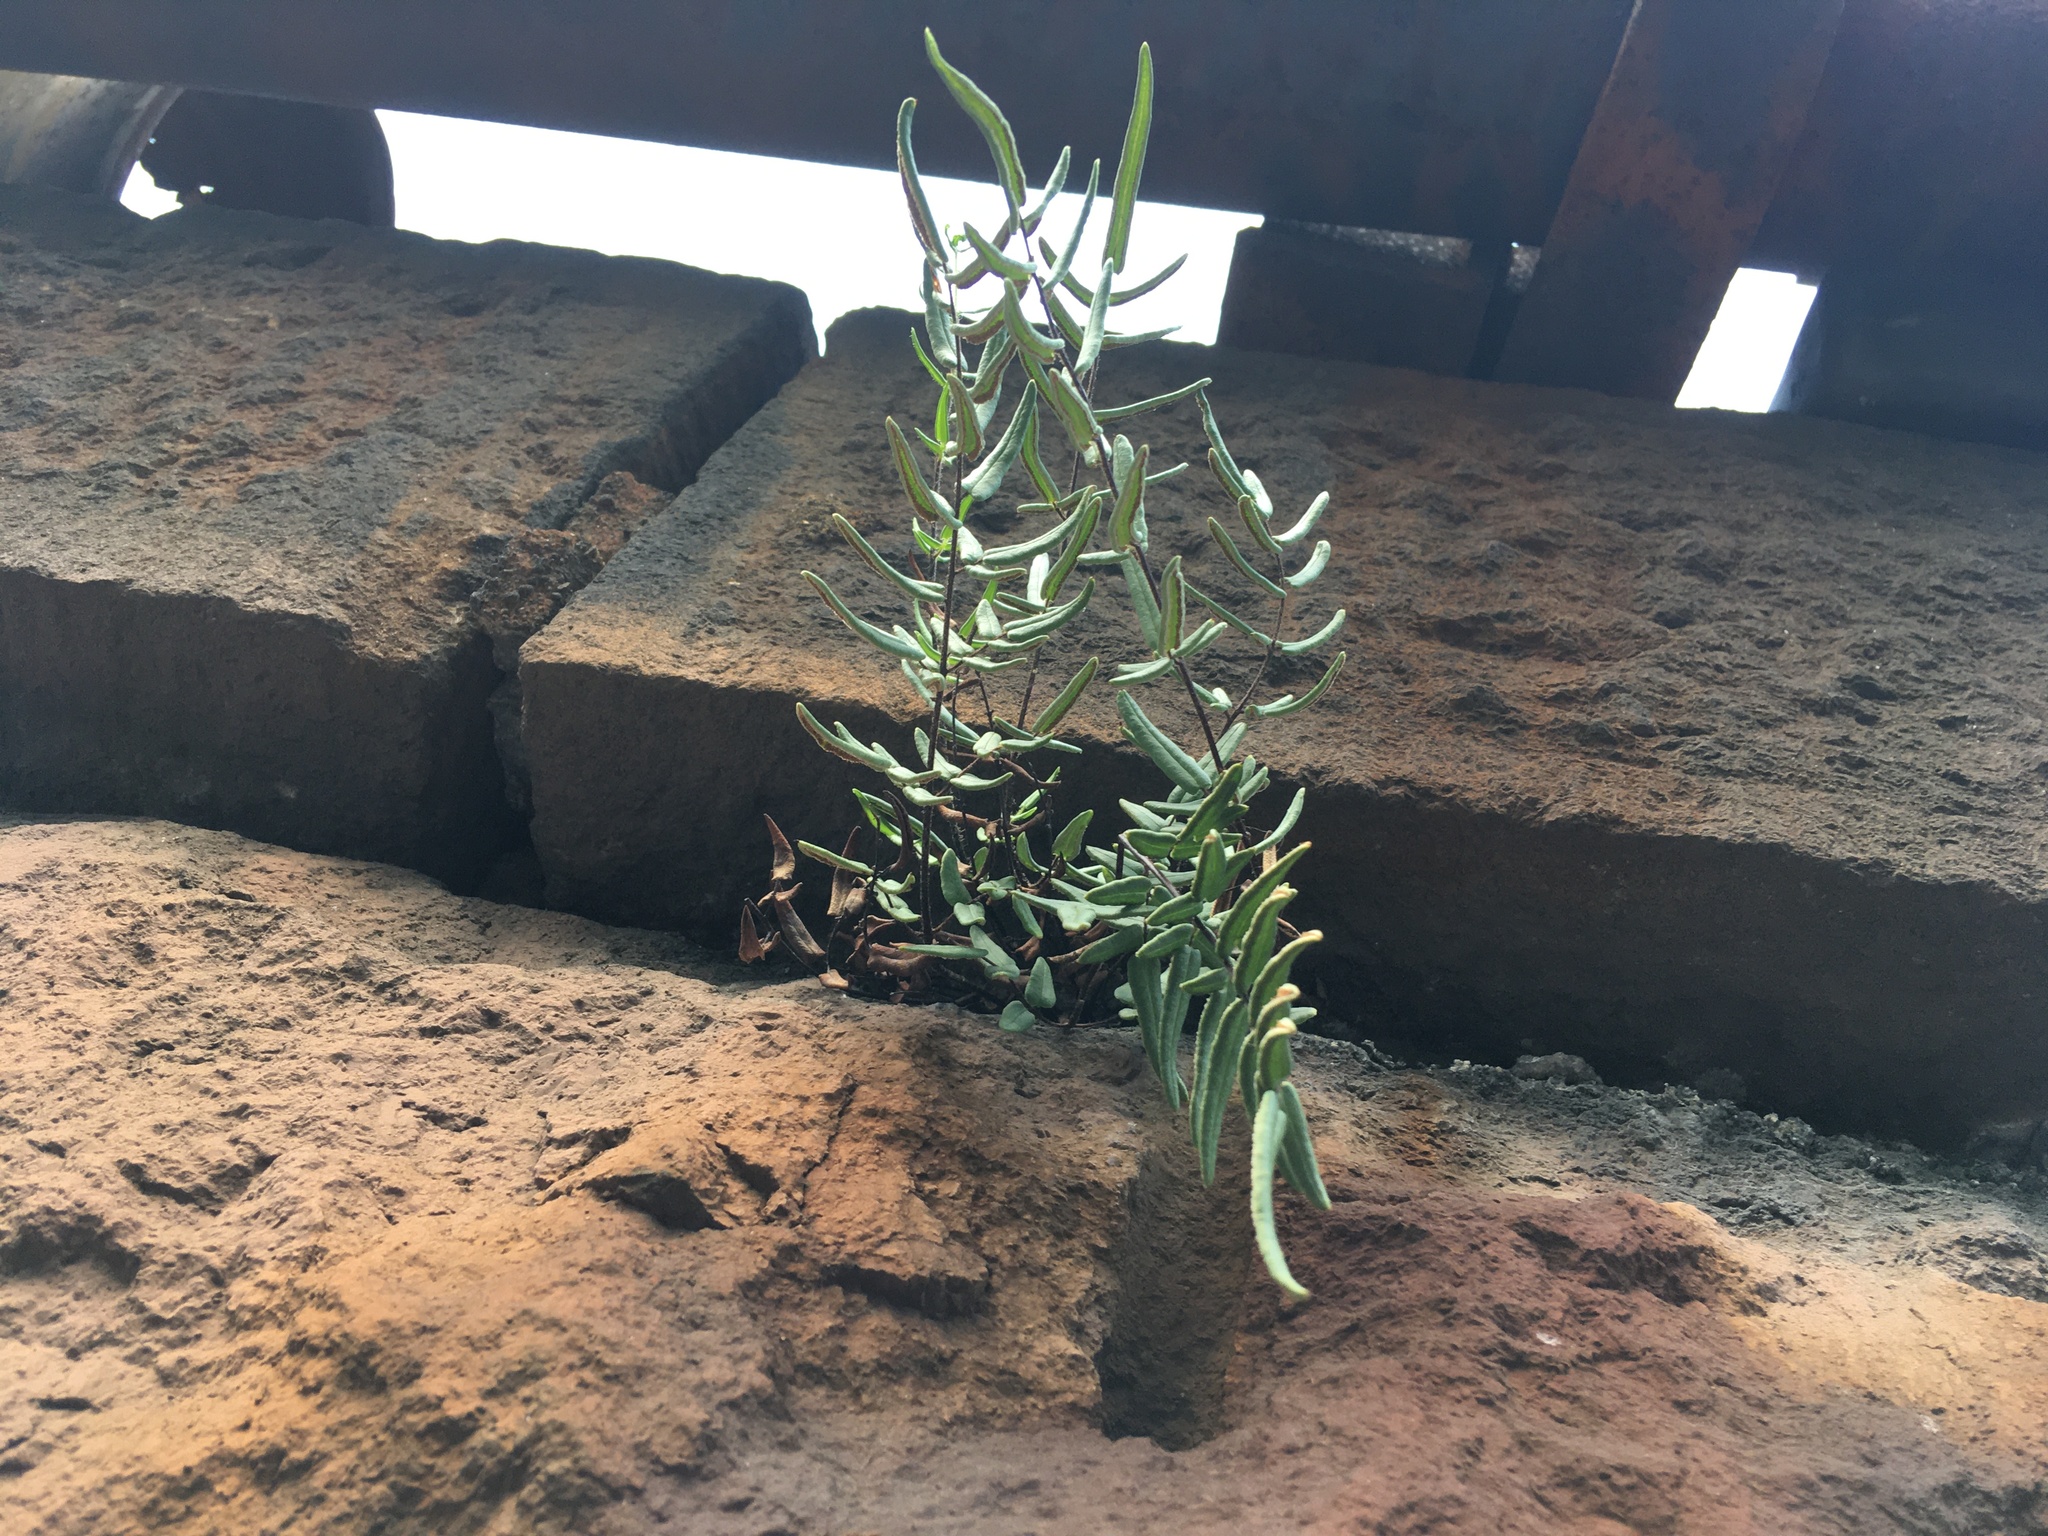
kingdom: Plantae
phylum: Tracheophyta
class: Polypodiopsida
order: Polypodiales
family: Pteridaceae
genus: Pellaea
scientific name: Pellaea atropurpurea
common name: Hairy cliffbrake
